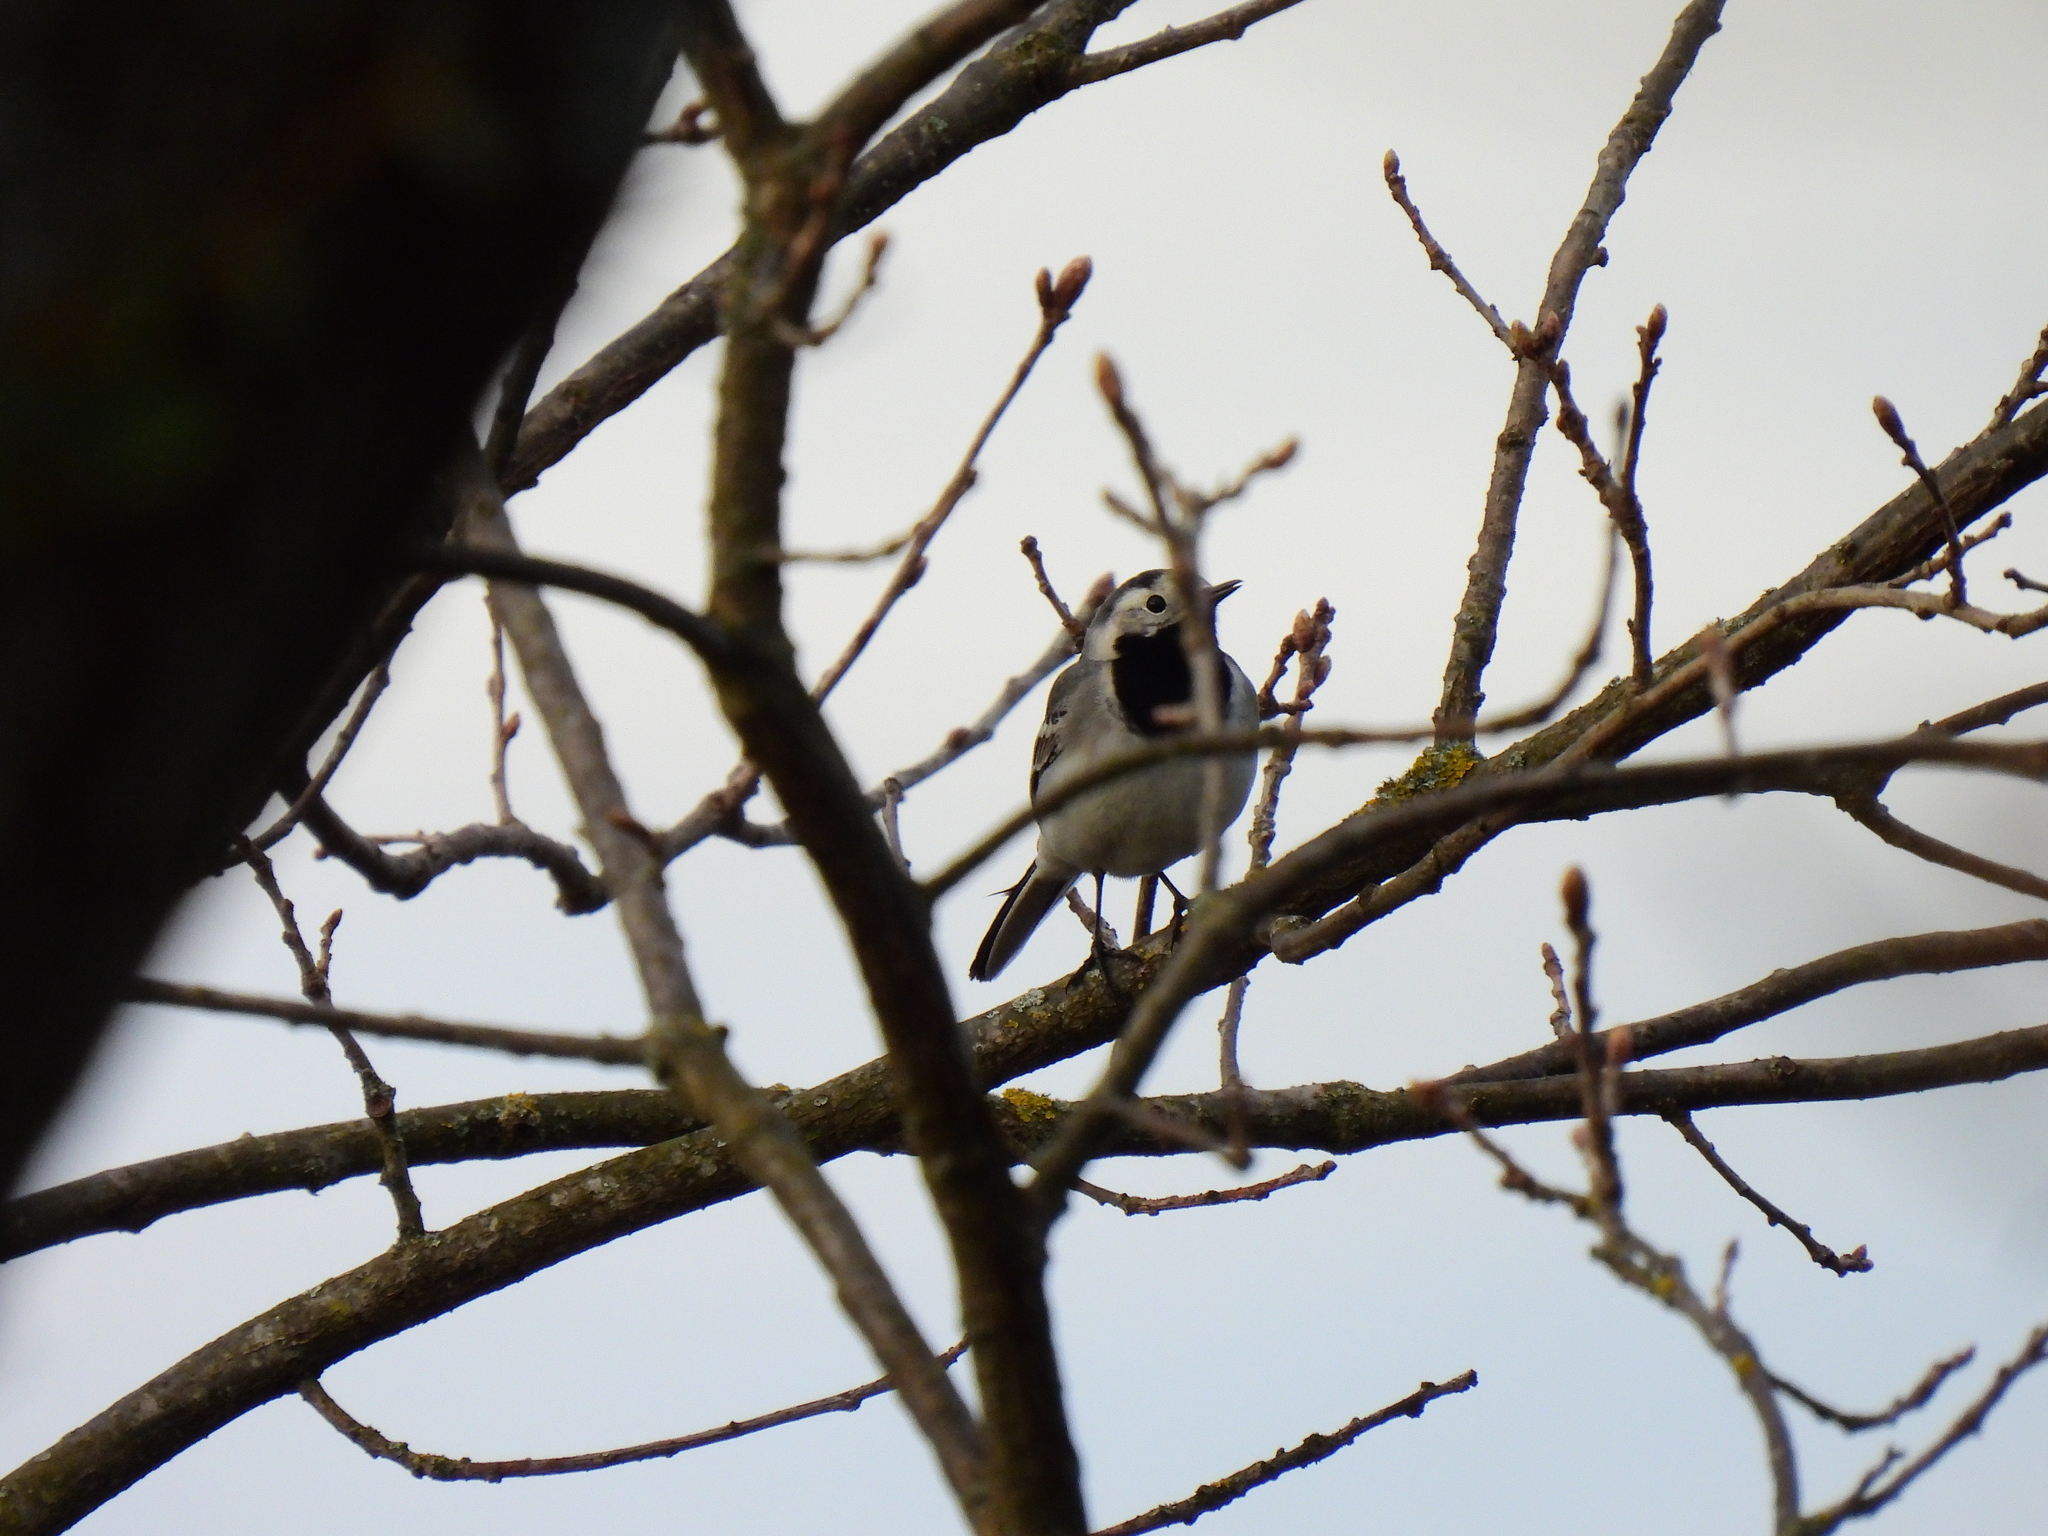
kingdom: Animalia
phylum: Chordata
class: Aves
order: Passeriformes
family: Motacillidae
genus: Motacilla
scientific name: Motacilla alba
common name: White wagtail
